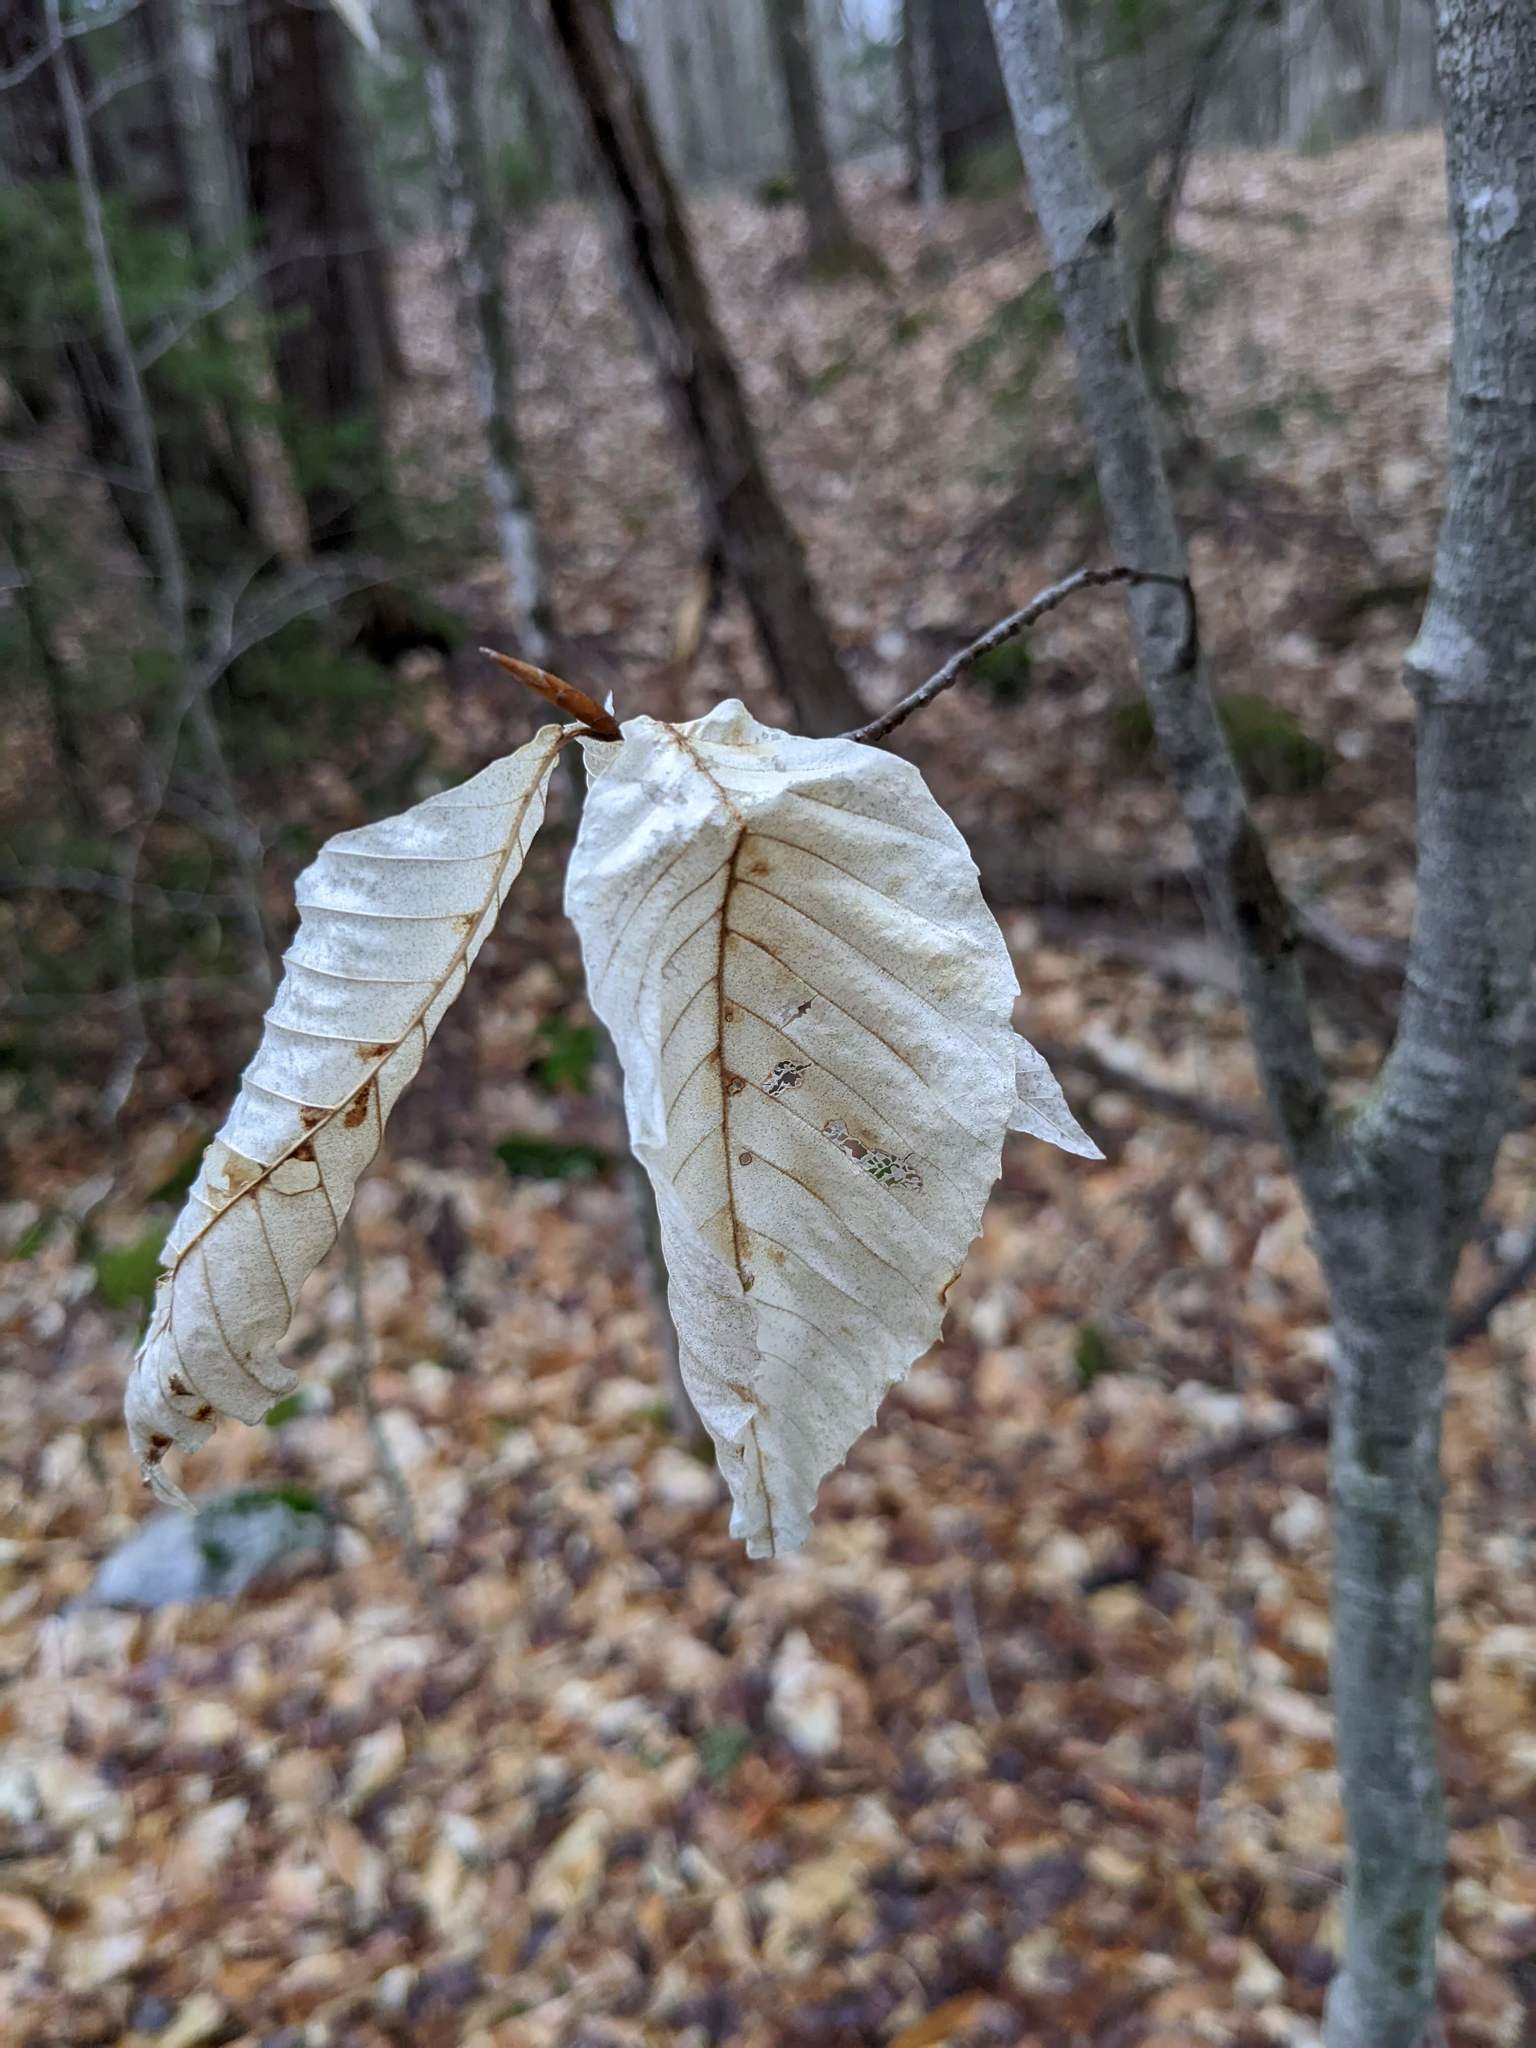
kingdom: Plantae
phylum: Tracheophyta
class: Magnoliopsida
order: Fagales
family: Fagaceae
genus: Fagus
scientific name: Fagus grandifolia
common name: American beech
